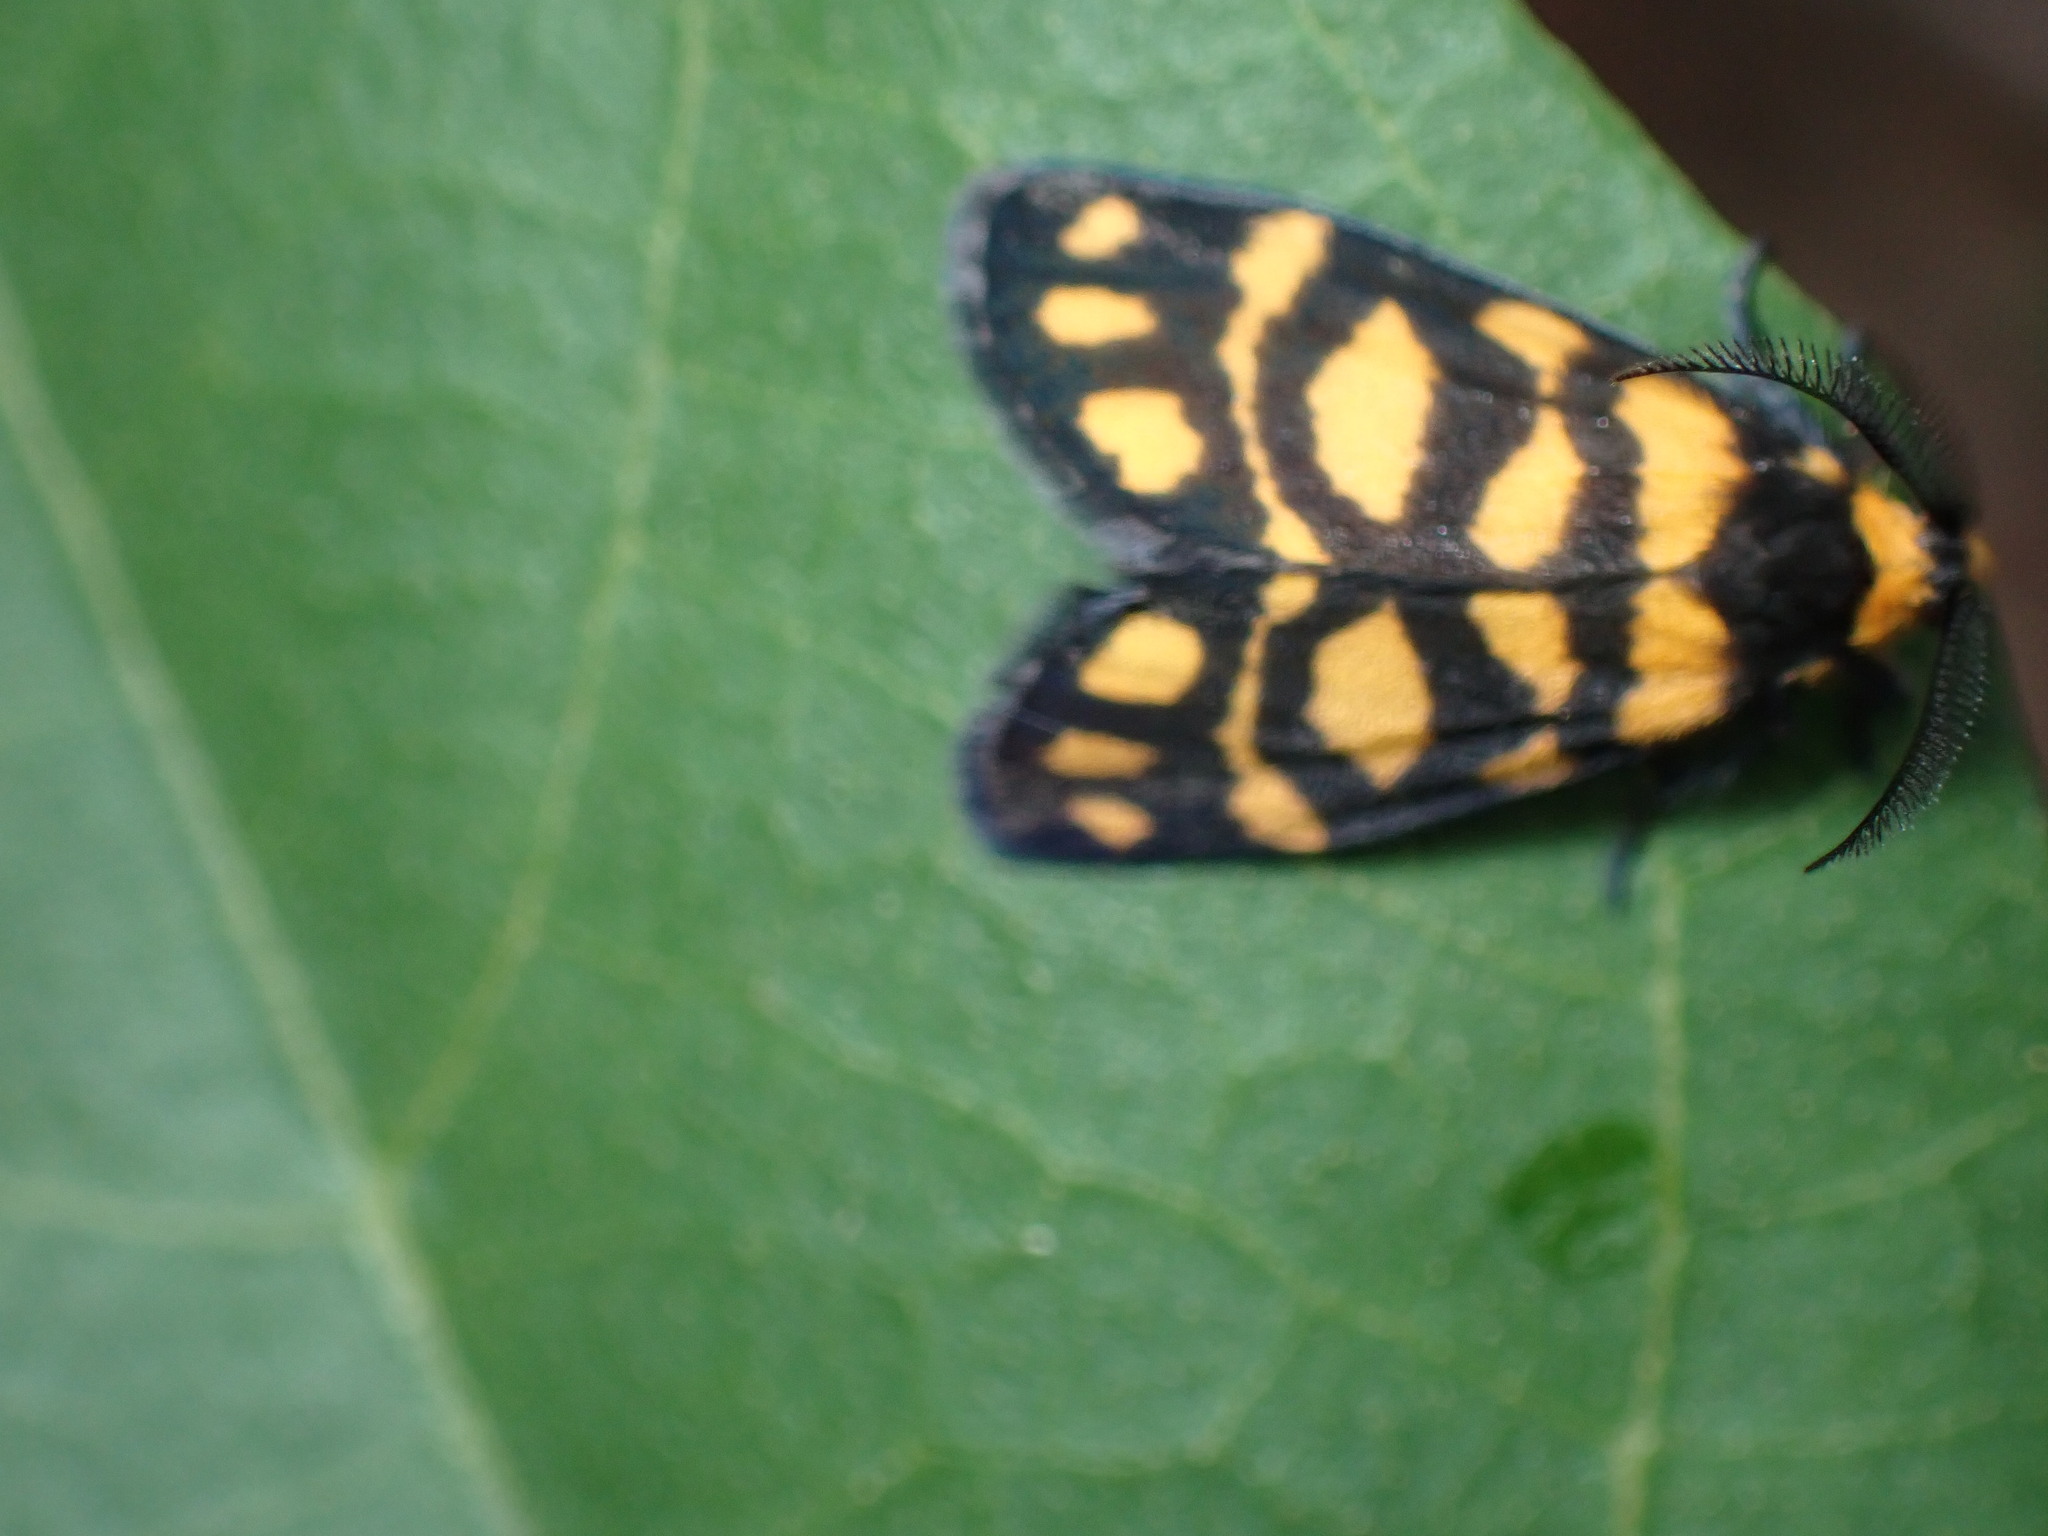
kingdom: Animalia
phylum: Arthropoda
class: Insecta
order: Lepidoptera
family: Erebidae
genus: Asura
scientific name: Asura lydia
